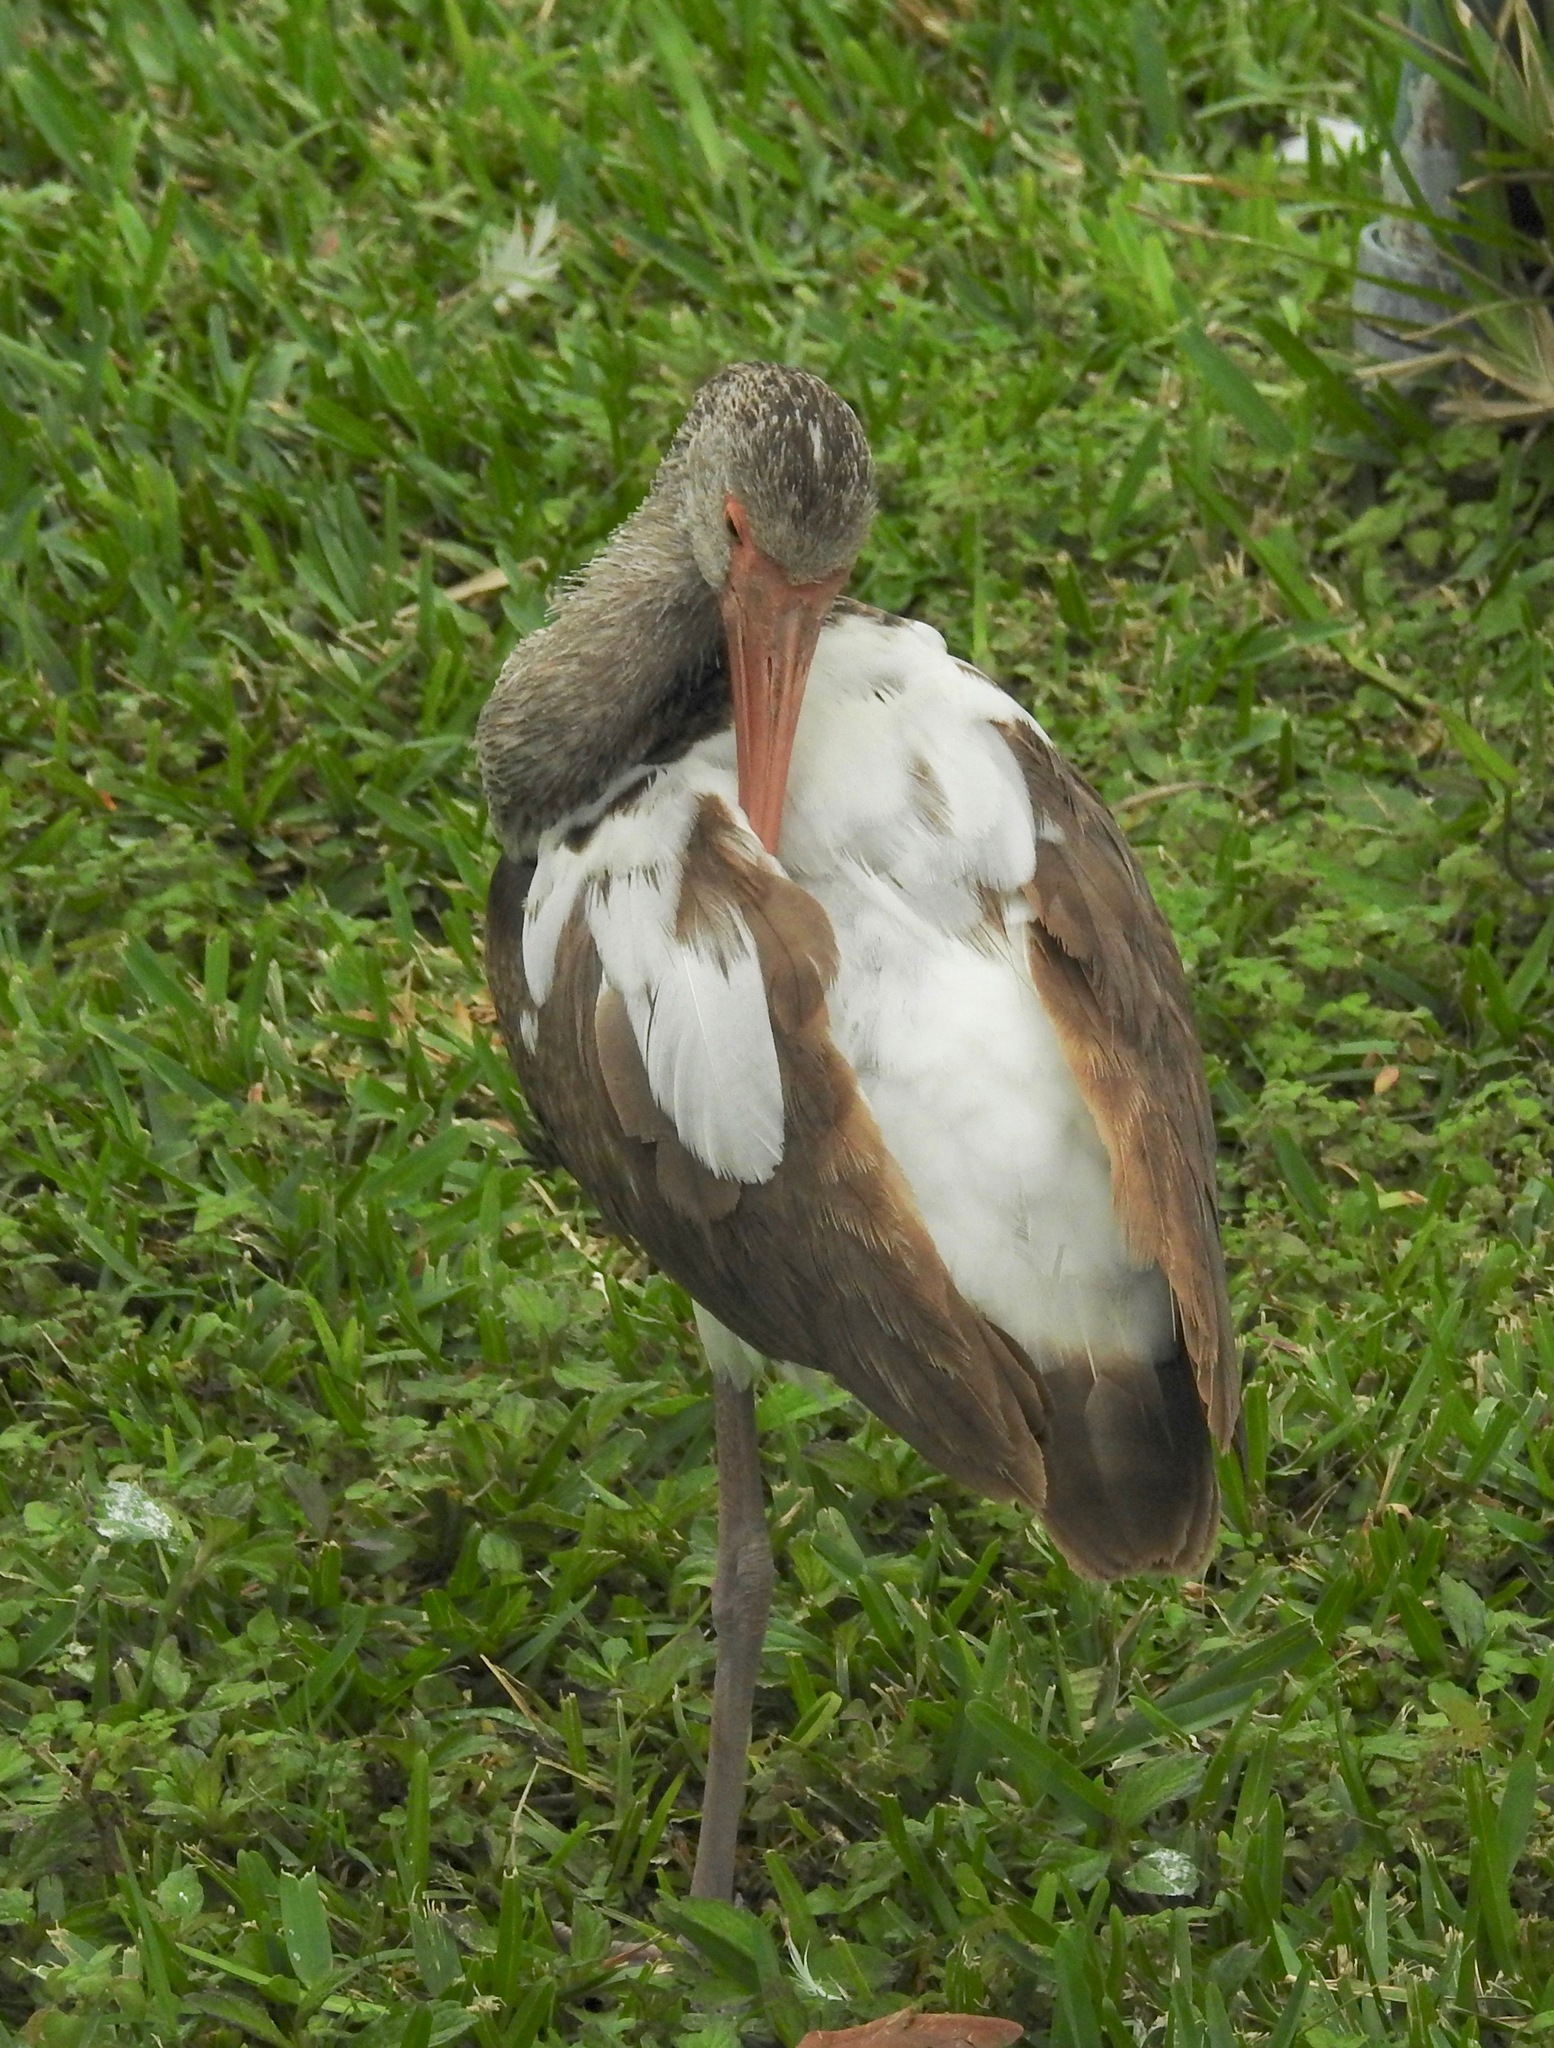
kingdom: Animalia
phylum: Chordata
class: Aves
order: Pelecaniformes
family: Threskiornithidae
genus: Eudocimus
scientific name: Eudocimus albus
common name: White ibis
